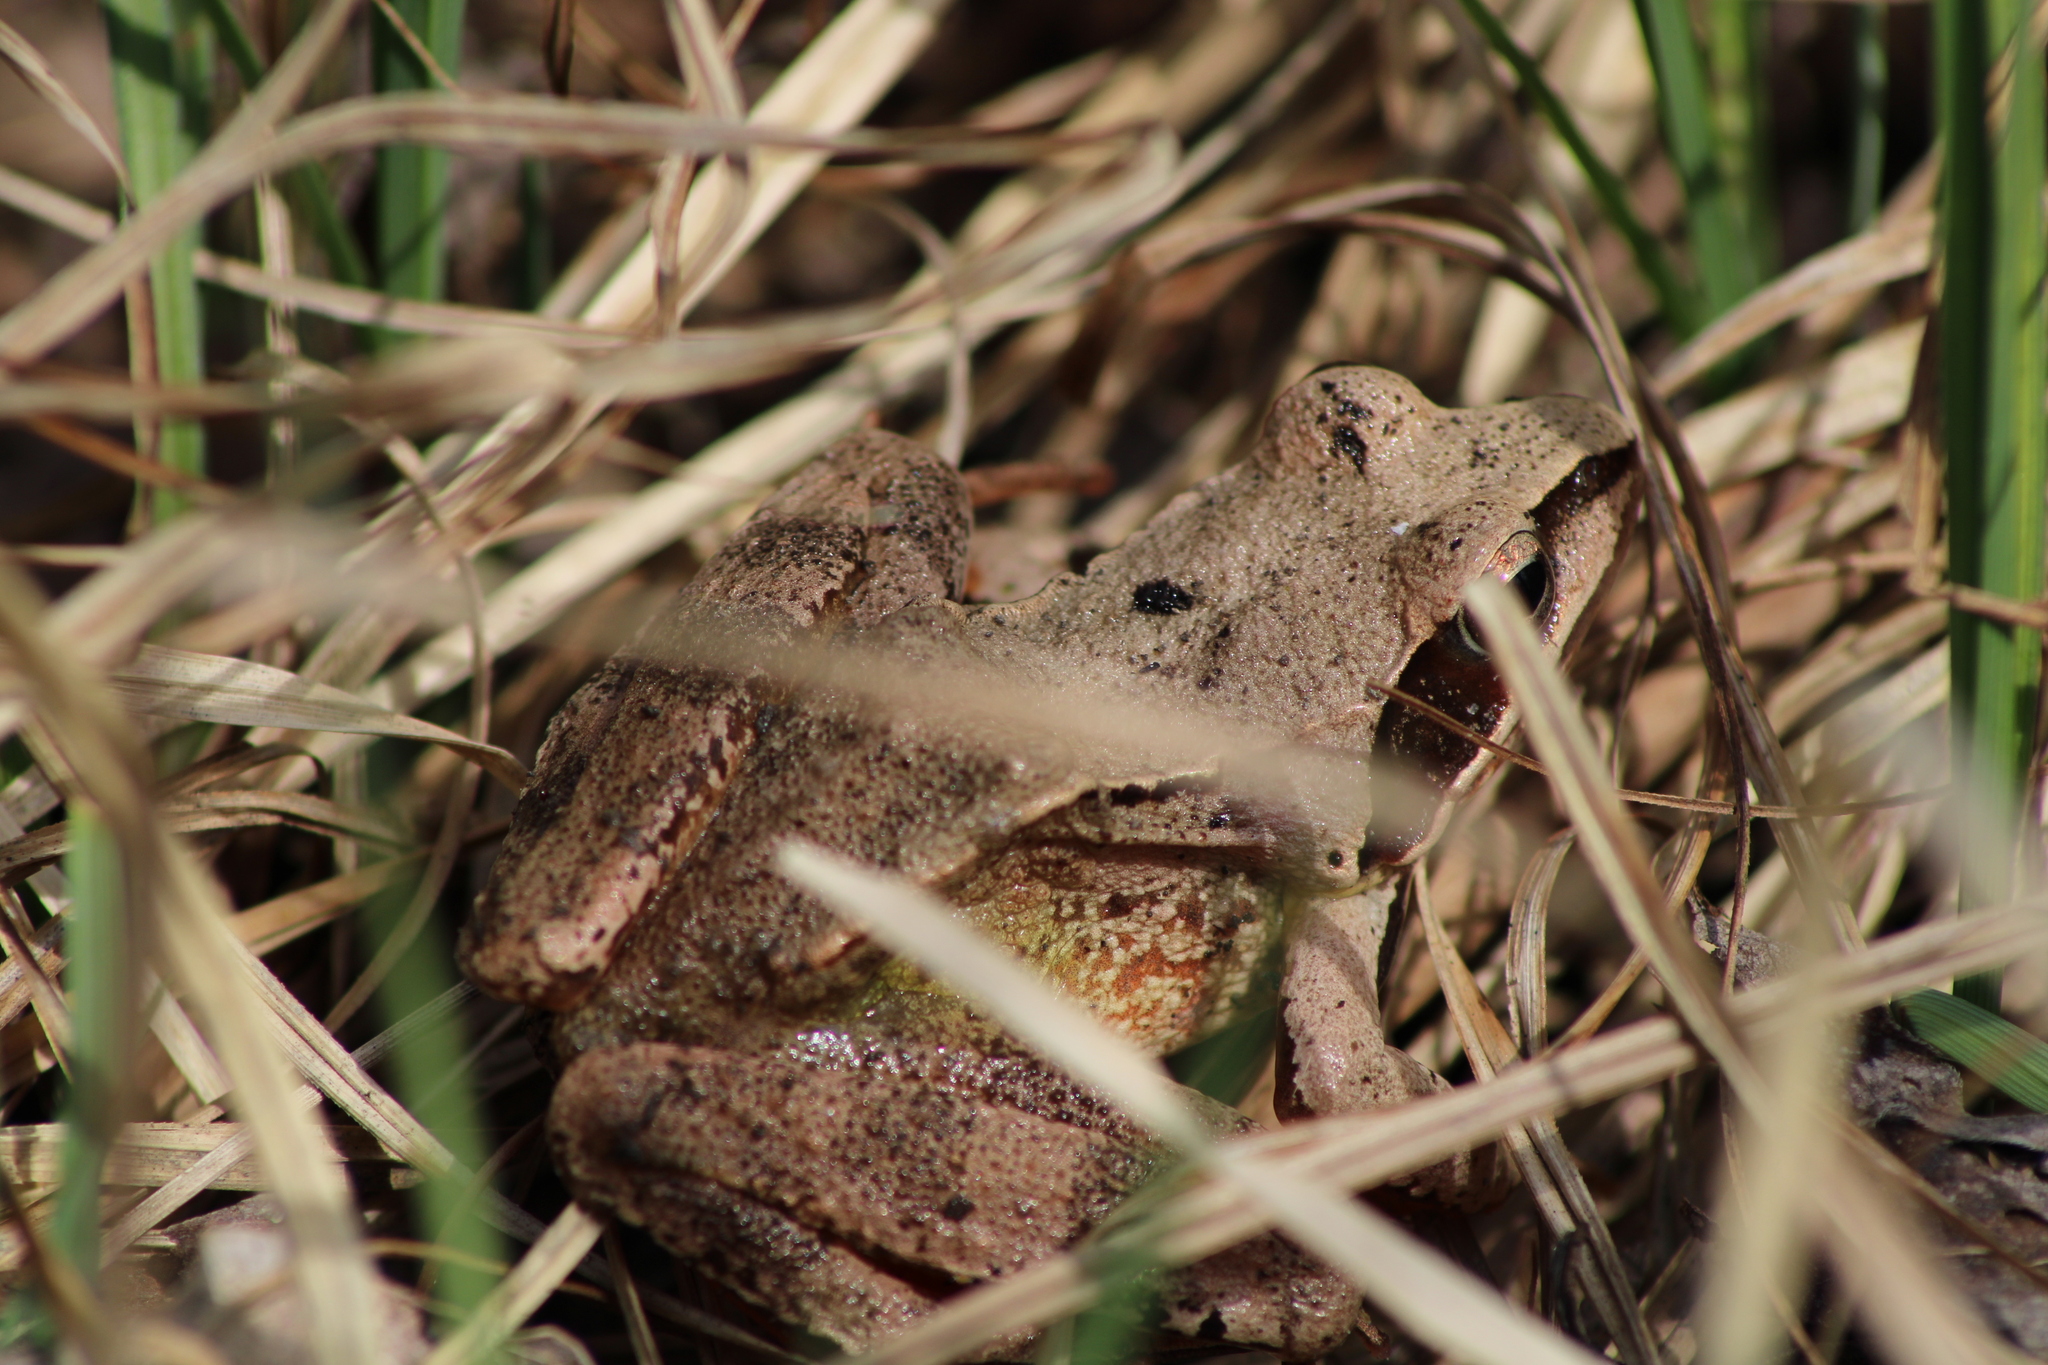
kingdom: Animalia
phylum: Chordata
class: Amphibia
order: Anura
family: Ranidae
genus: Rana
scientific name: Rana dalmatina
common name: Agile frog
